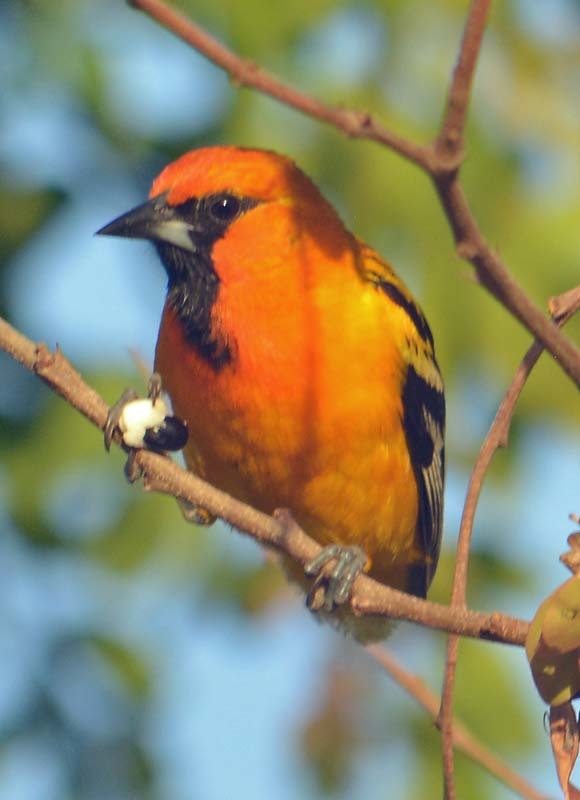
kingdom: Animalia
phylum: Chordata
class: Aves
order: Passeriformes
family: Icteridae
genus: Icterus
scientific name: Icterus pustulatus
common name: Streak-backed oriole
